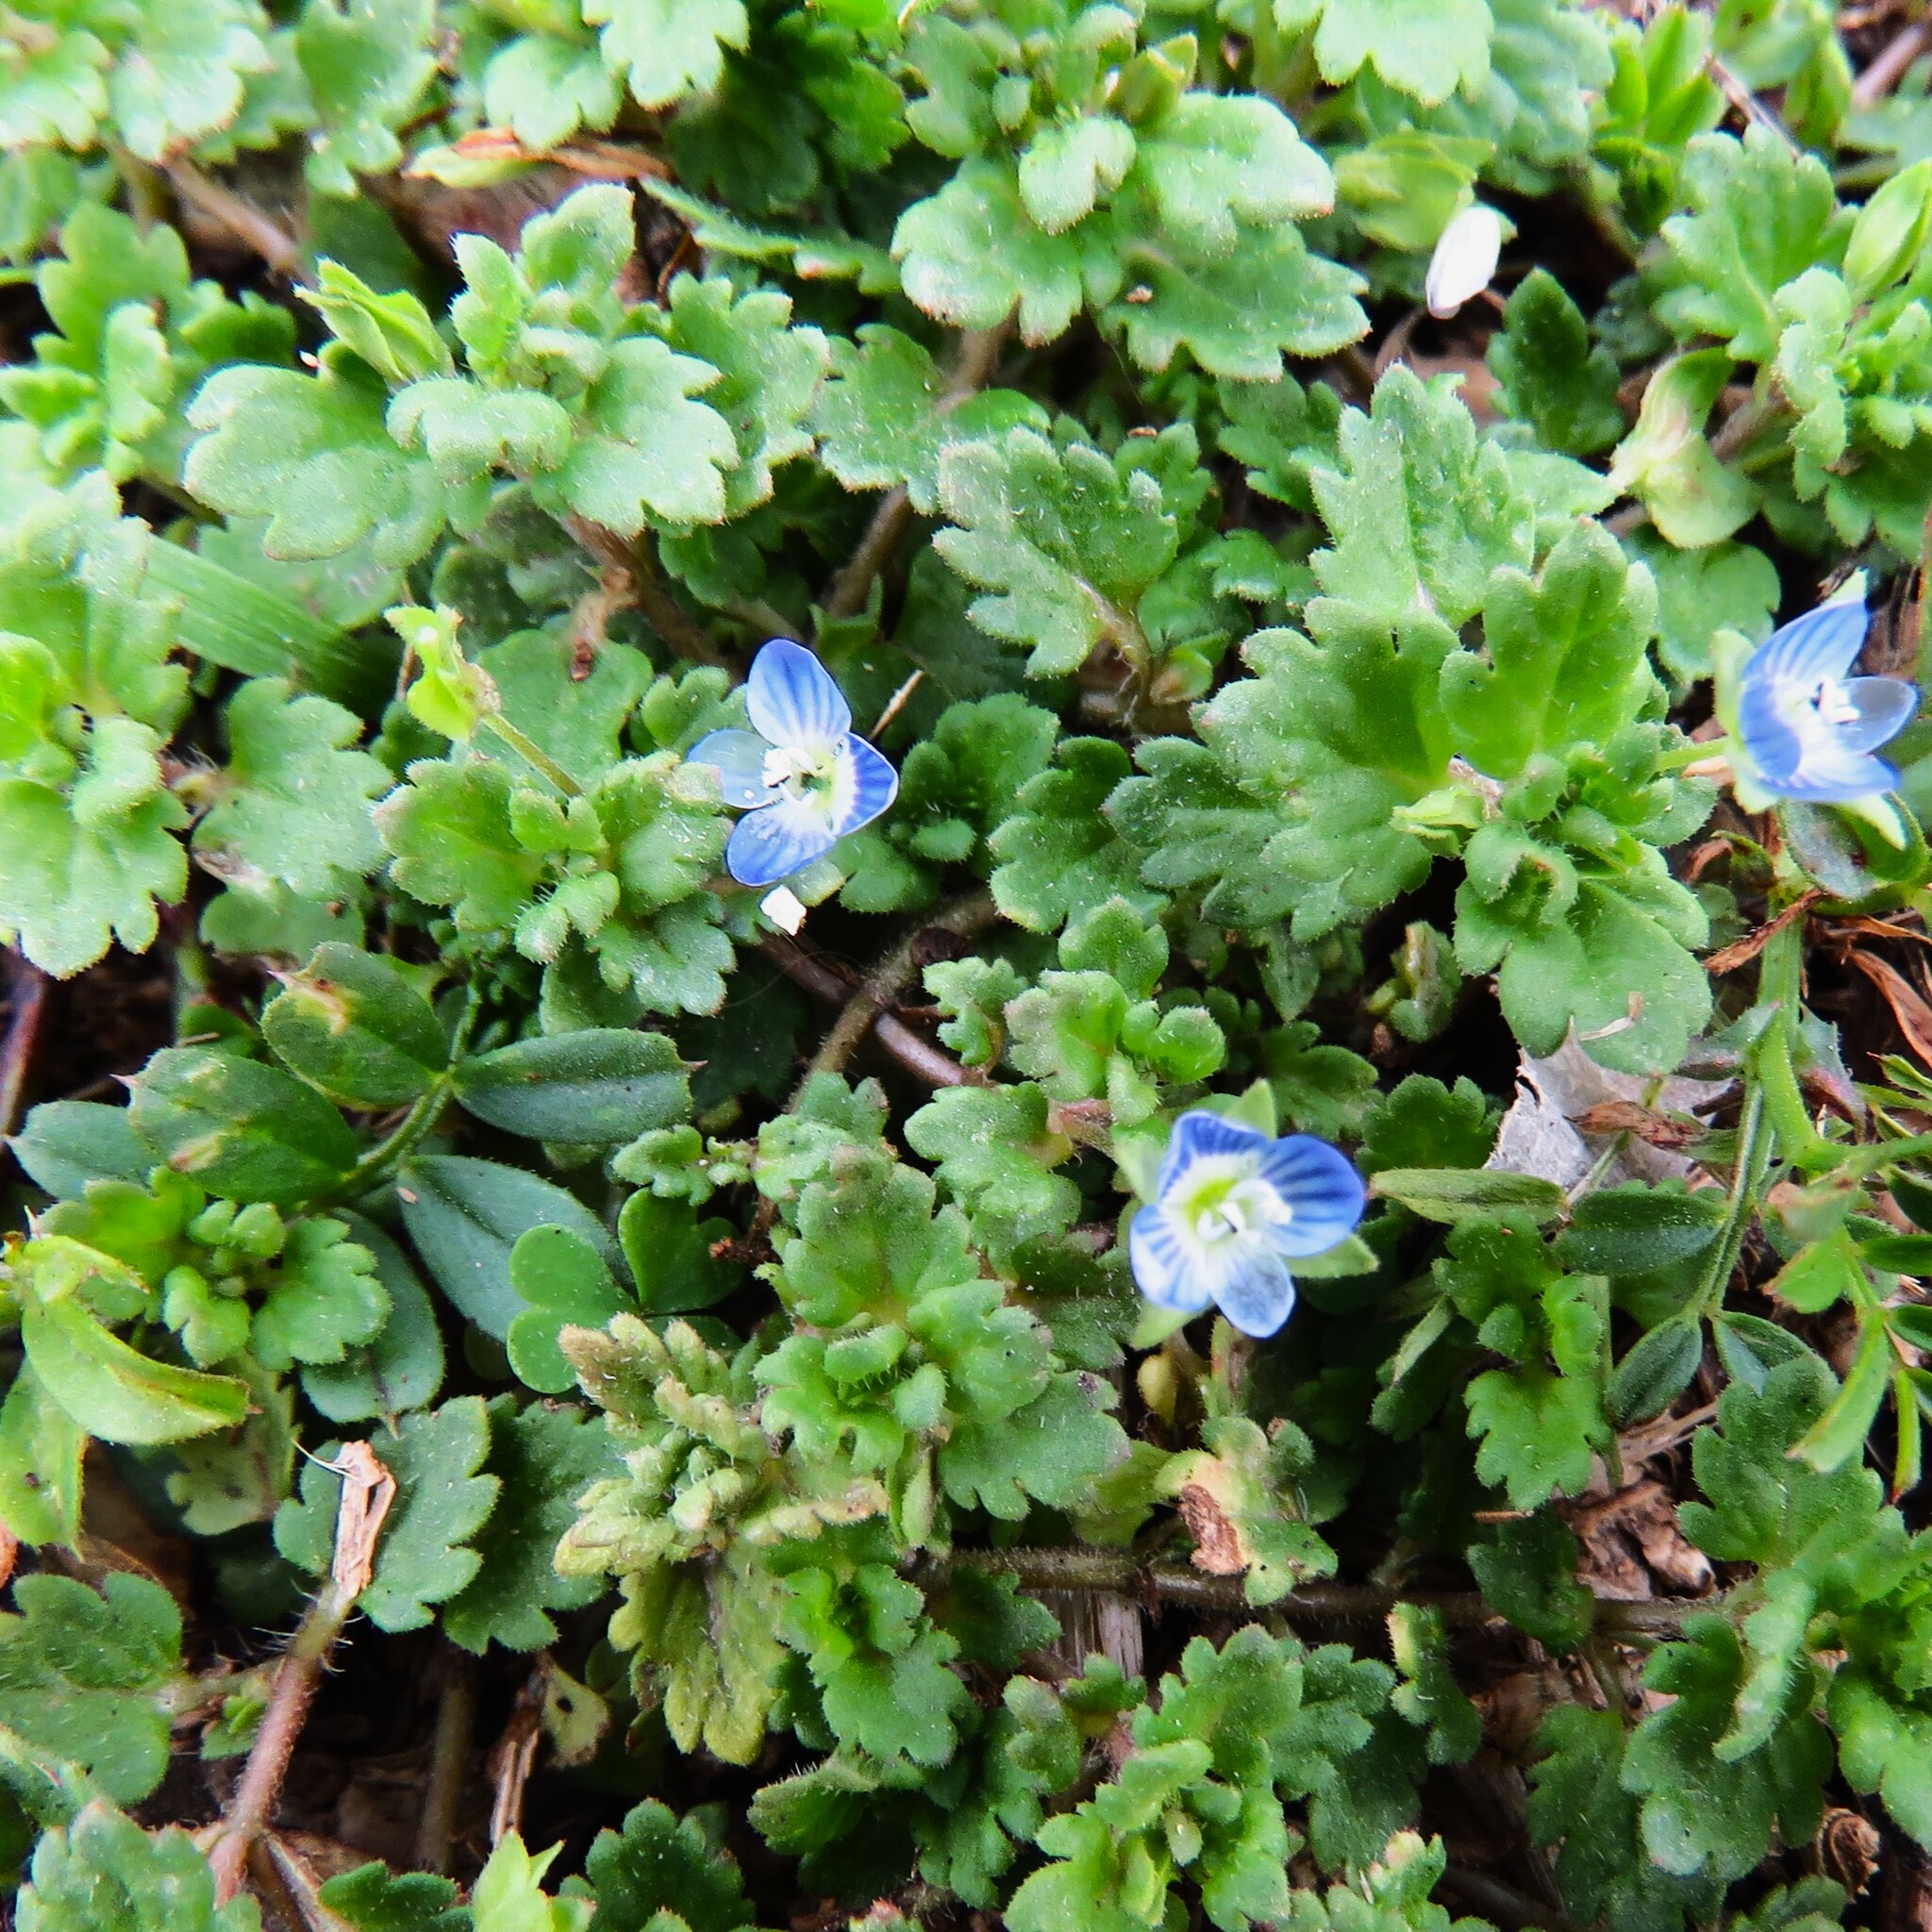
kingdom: Plantae
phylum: Tracheophyta
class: Magnoliopsida
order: Lamiales
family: Plantaginaceae
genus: Veronica
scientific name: Veronica polita
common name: Grey field-speedwell
